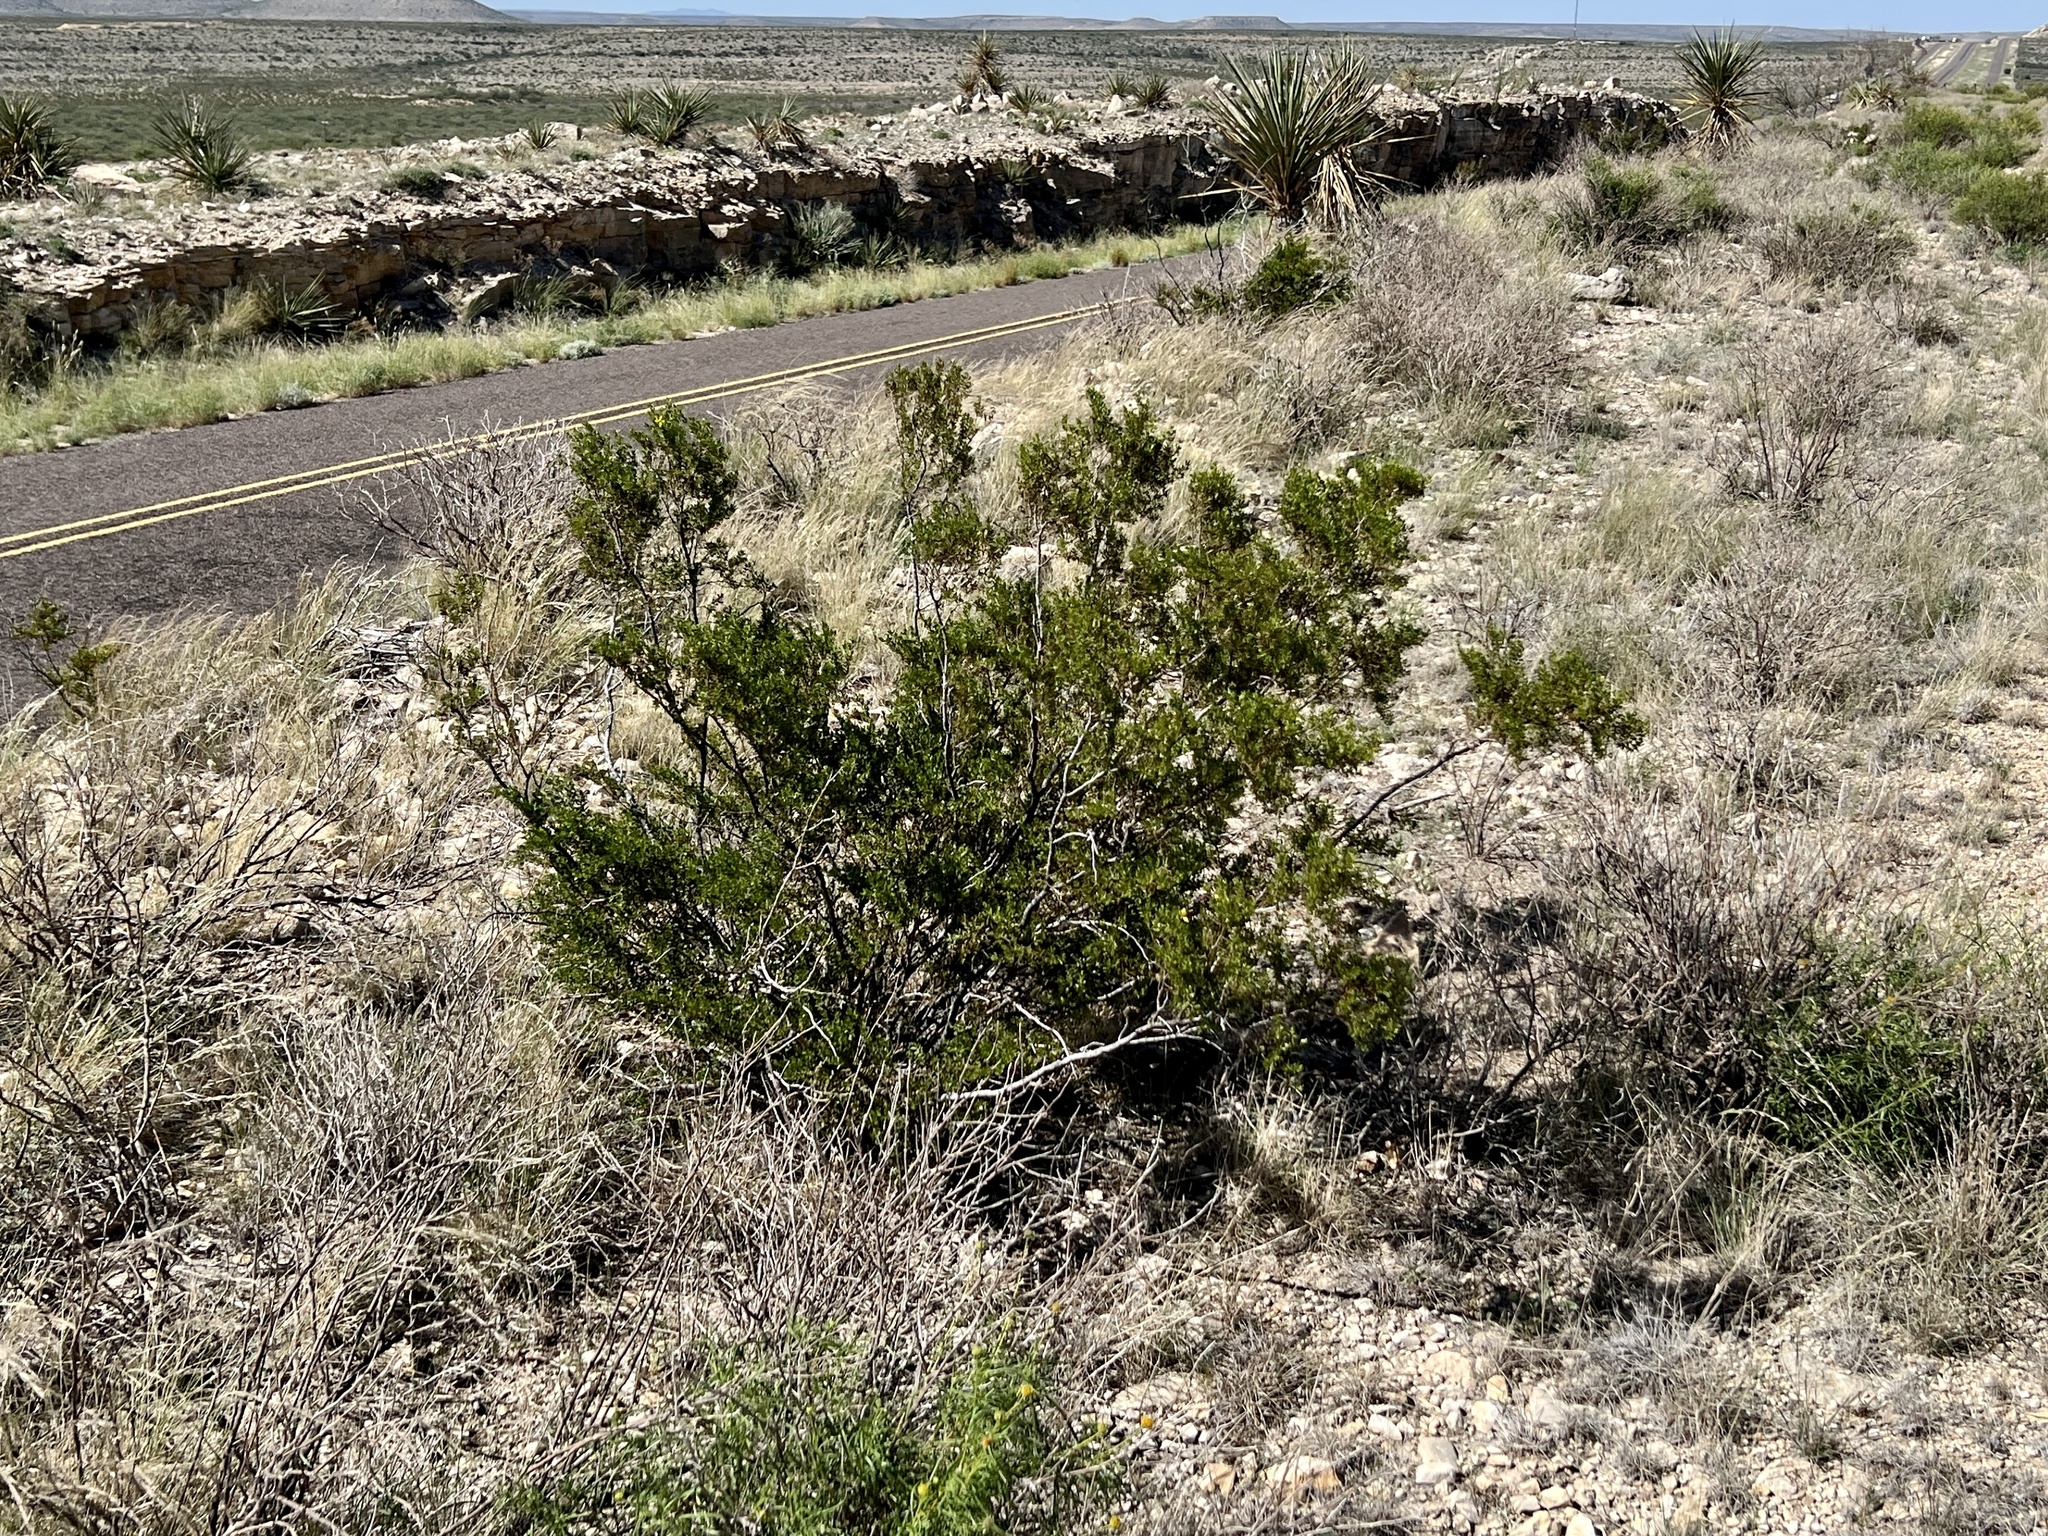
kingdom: Plantae
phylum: Tracheophyta
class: Magnoliopsida
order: Zygophyllales
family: Zygophyllaceae
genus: Larrea
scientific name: Larrea tridentata
